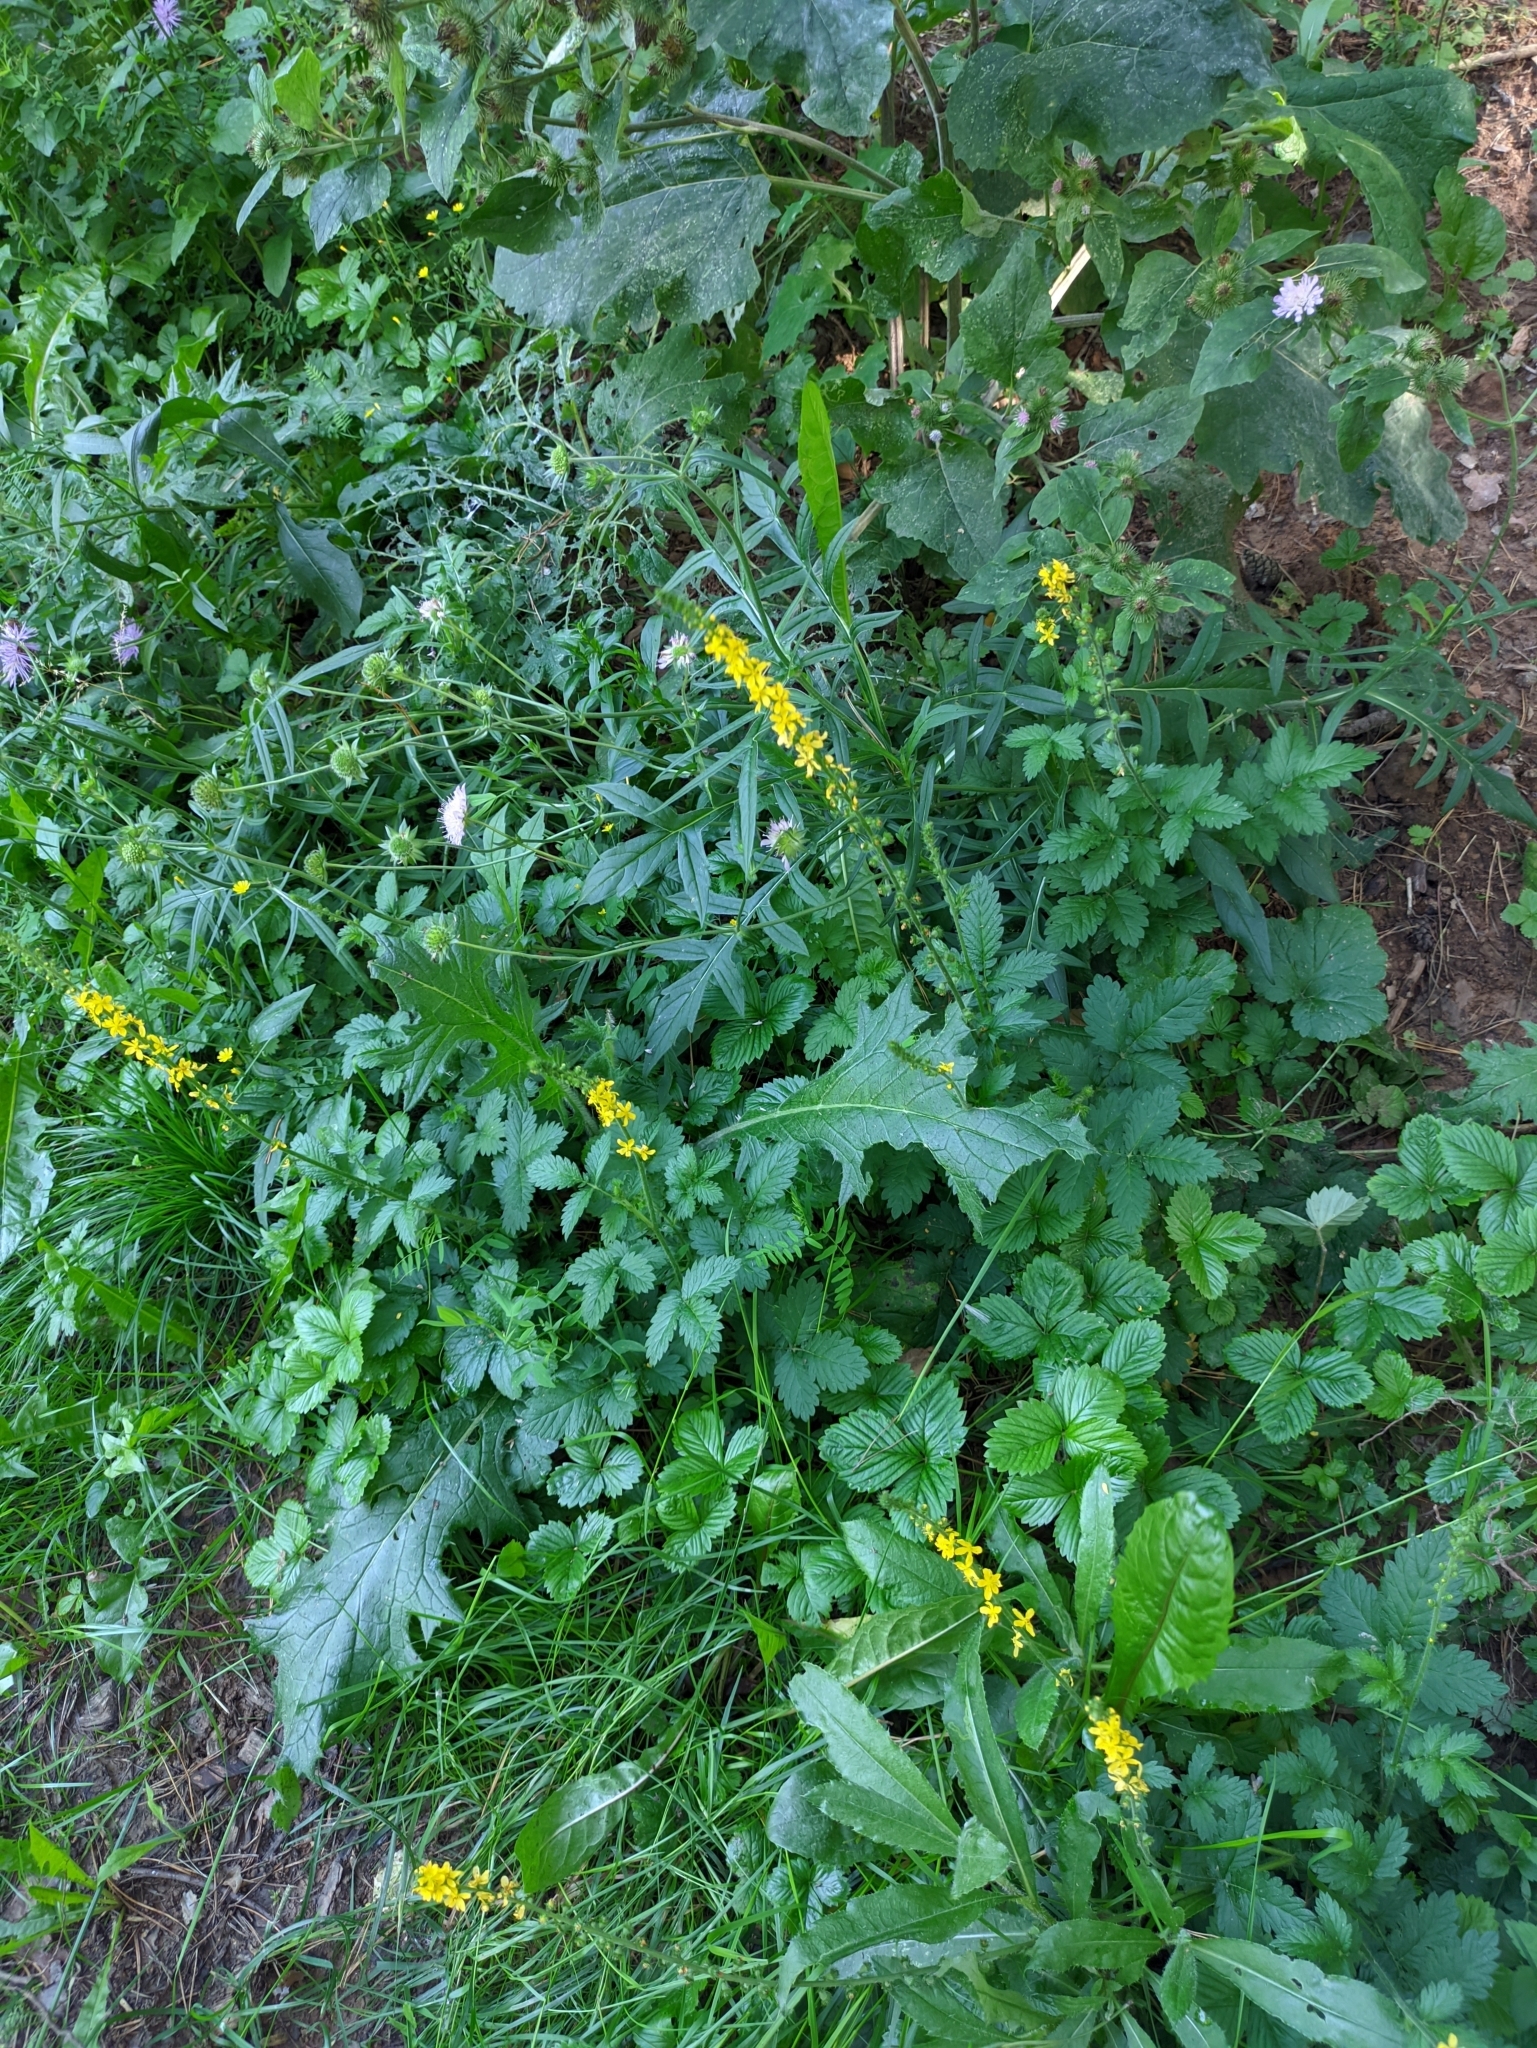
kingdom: Plantae
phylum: Tracheophyta
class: Magnoliopsida
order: Rosales
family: Rosaceae
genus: Agrimonia
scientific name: Agrimonia eupatoria
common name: Agrimony
